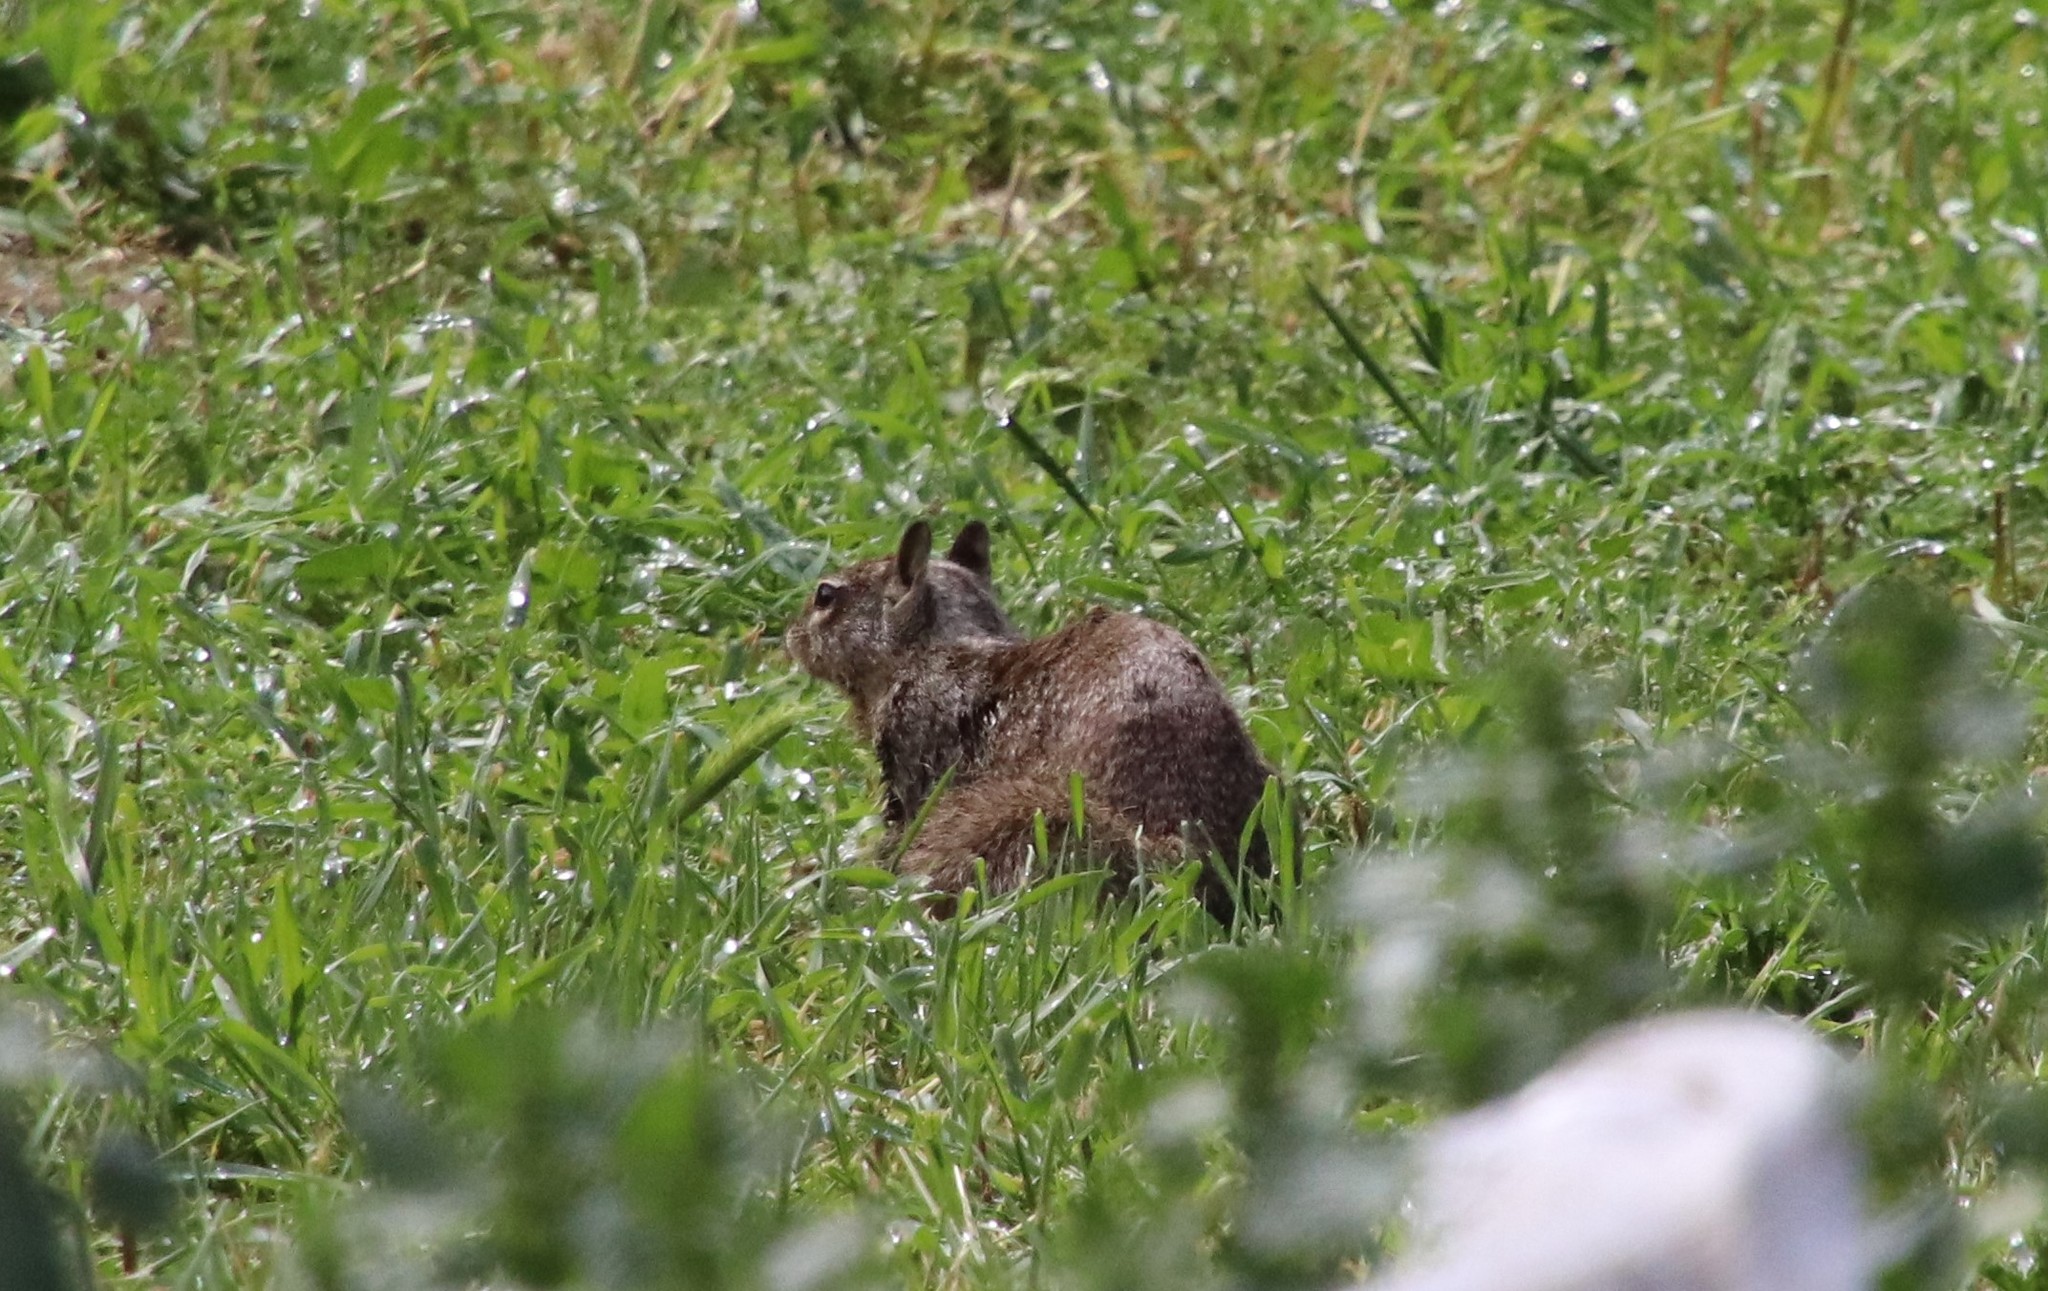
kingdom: Animalia
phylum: Chordata
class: Mammalia
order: Rodentia
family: Sciuridae
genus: Otospermophilus
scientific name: Otospermophilus beecheyi
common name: California ground squirrel
